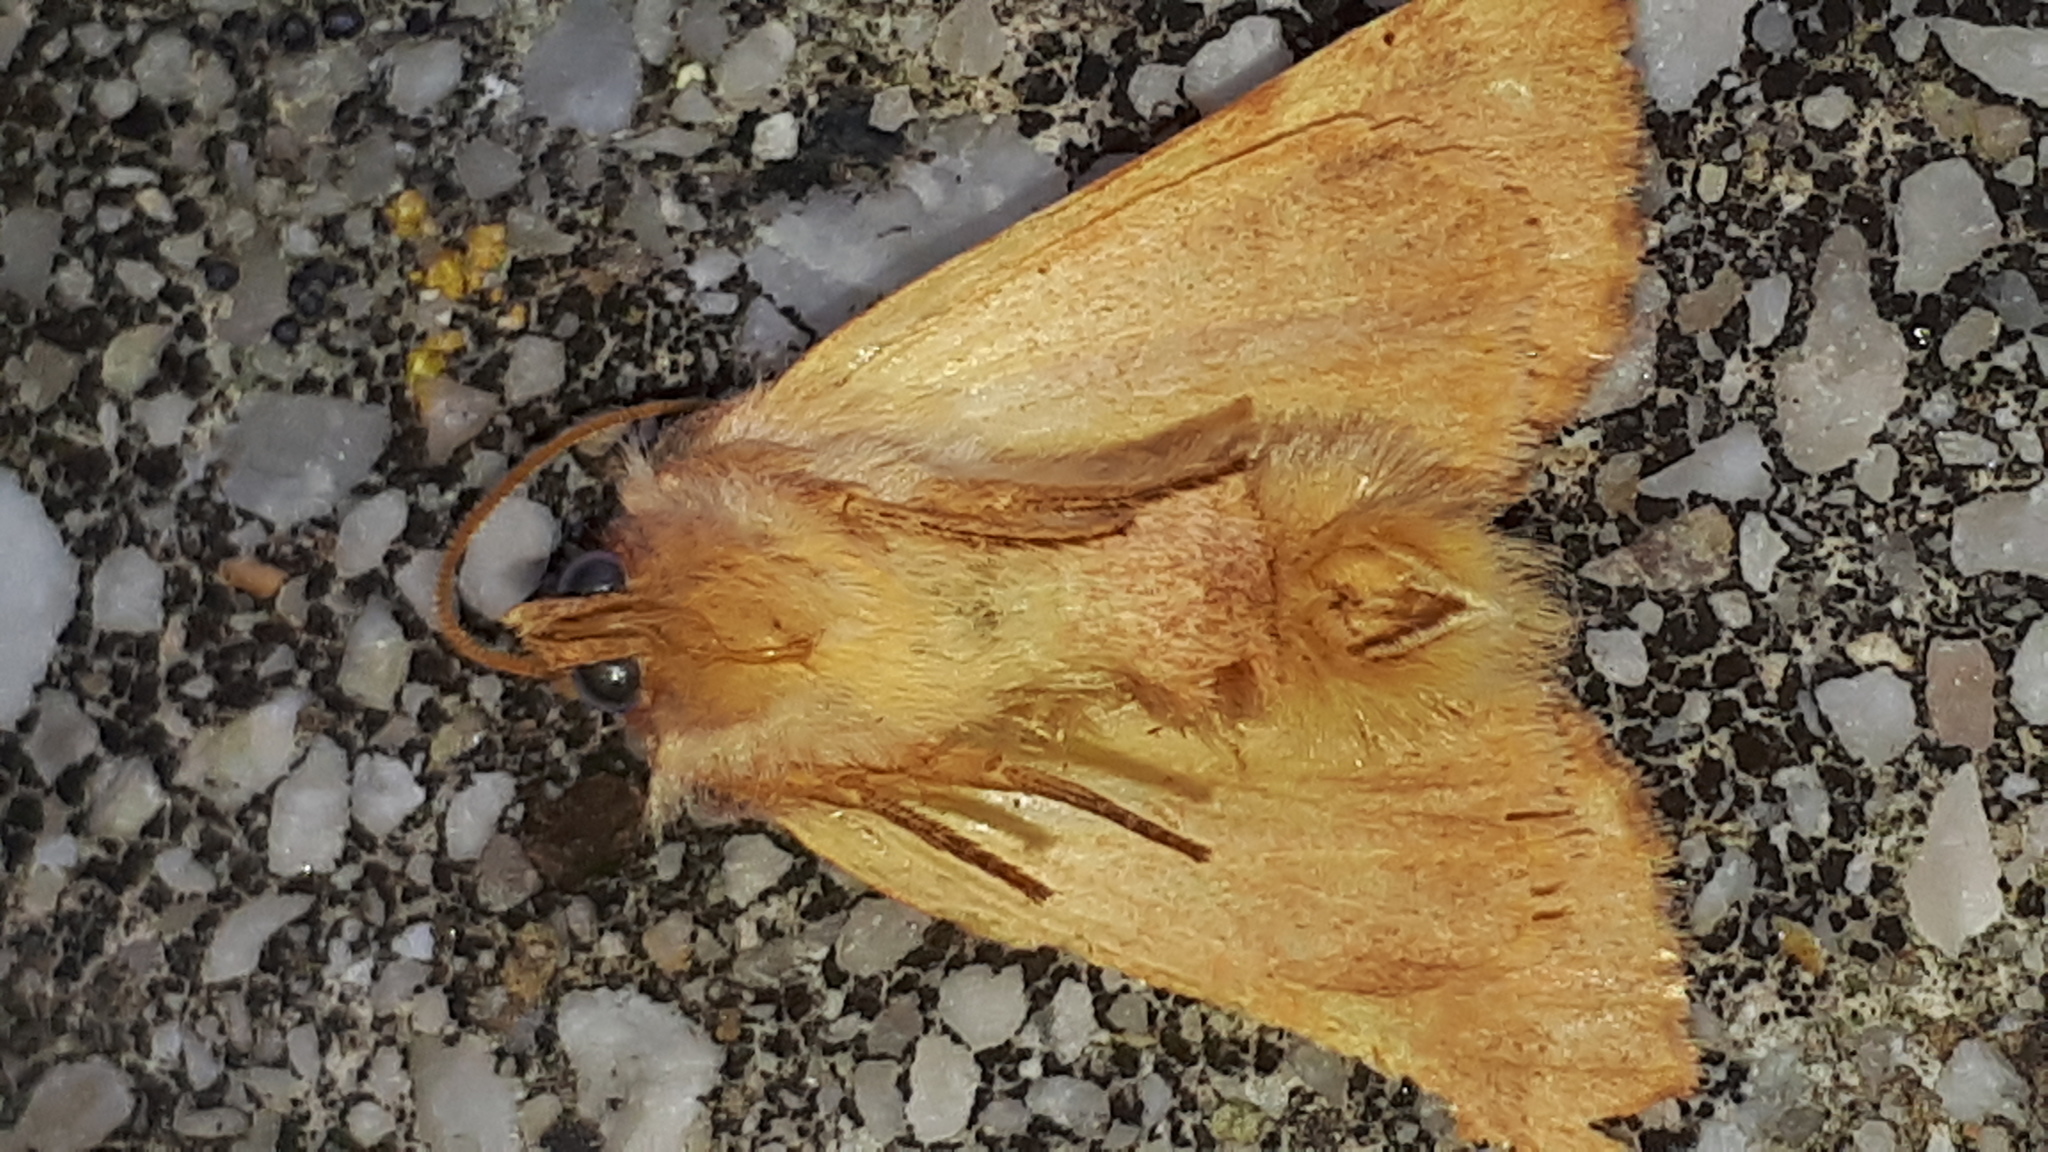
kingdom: Animalia
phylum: Arthropoda
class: Insecta
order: Lepidoptera
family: Noctuidae
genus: Tiliacea
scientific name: Tiliacea aurago
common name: Barred sallow
